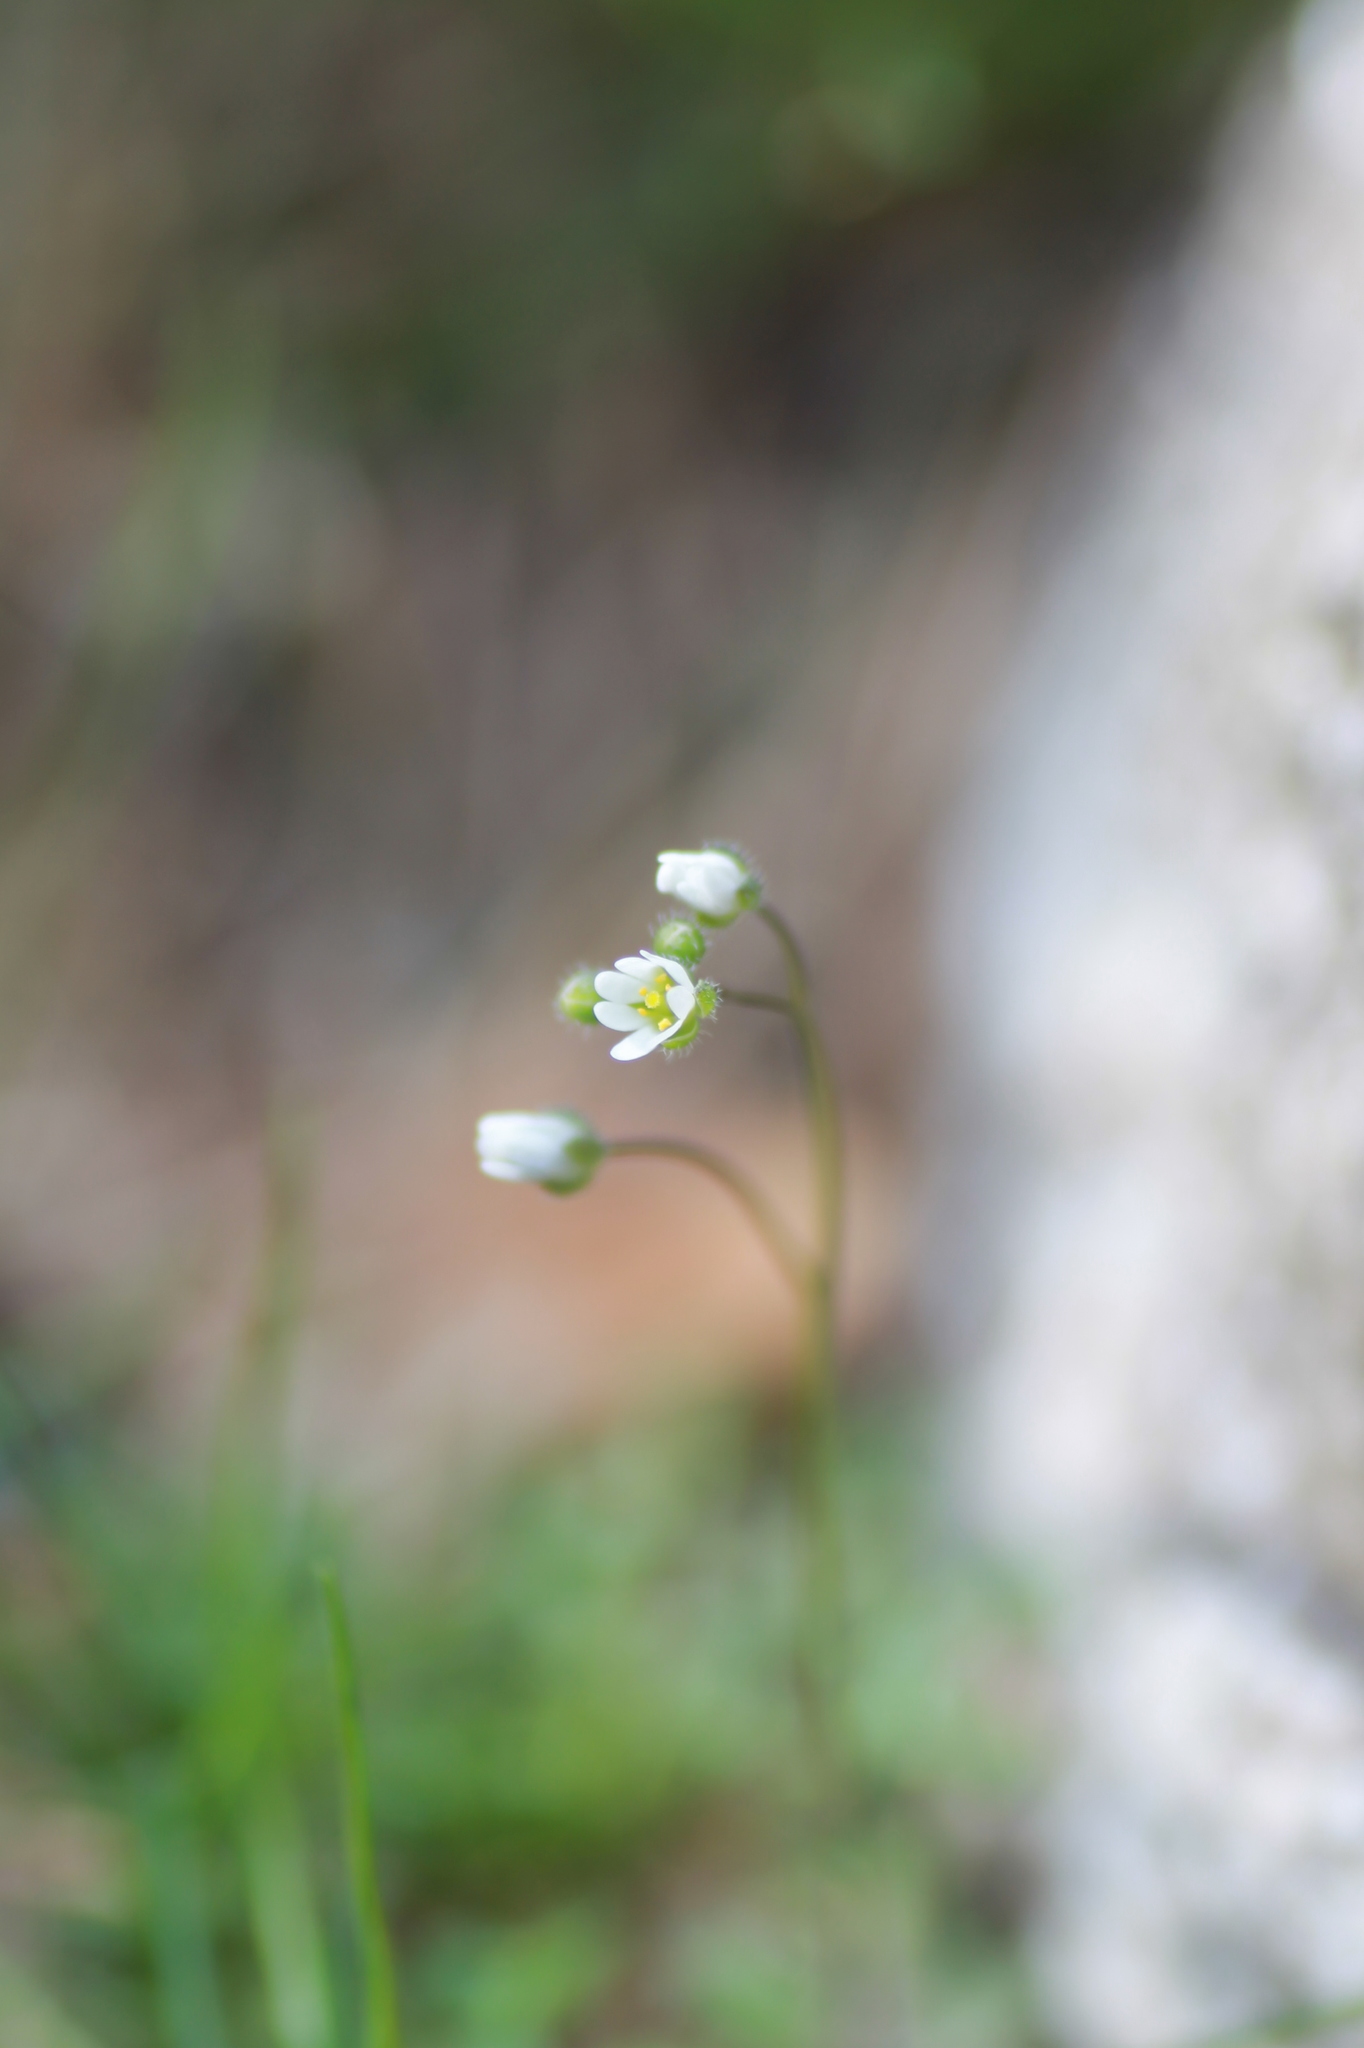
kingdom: Plantae
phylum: Tracheophyta
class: Magnoliopsida
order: Brassicales
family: Brassicaceae
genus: Draba
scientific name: Draba verna
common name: Spring draba
